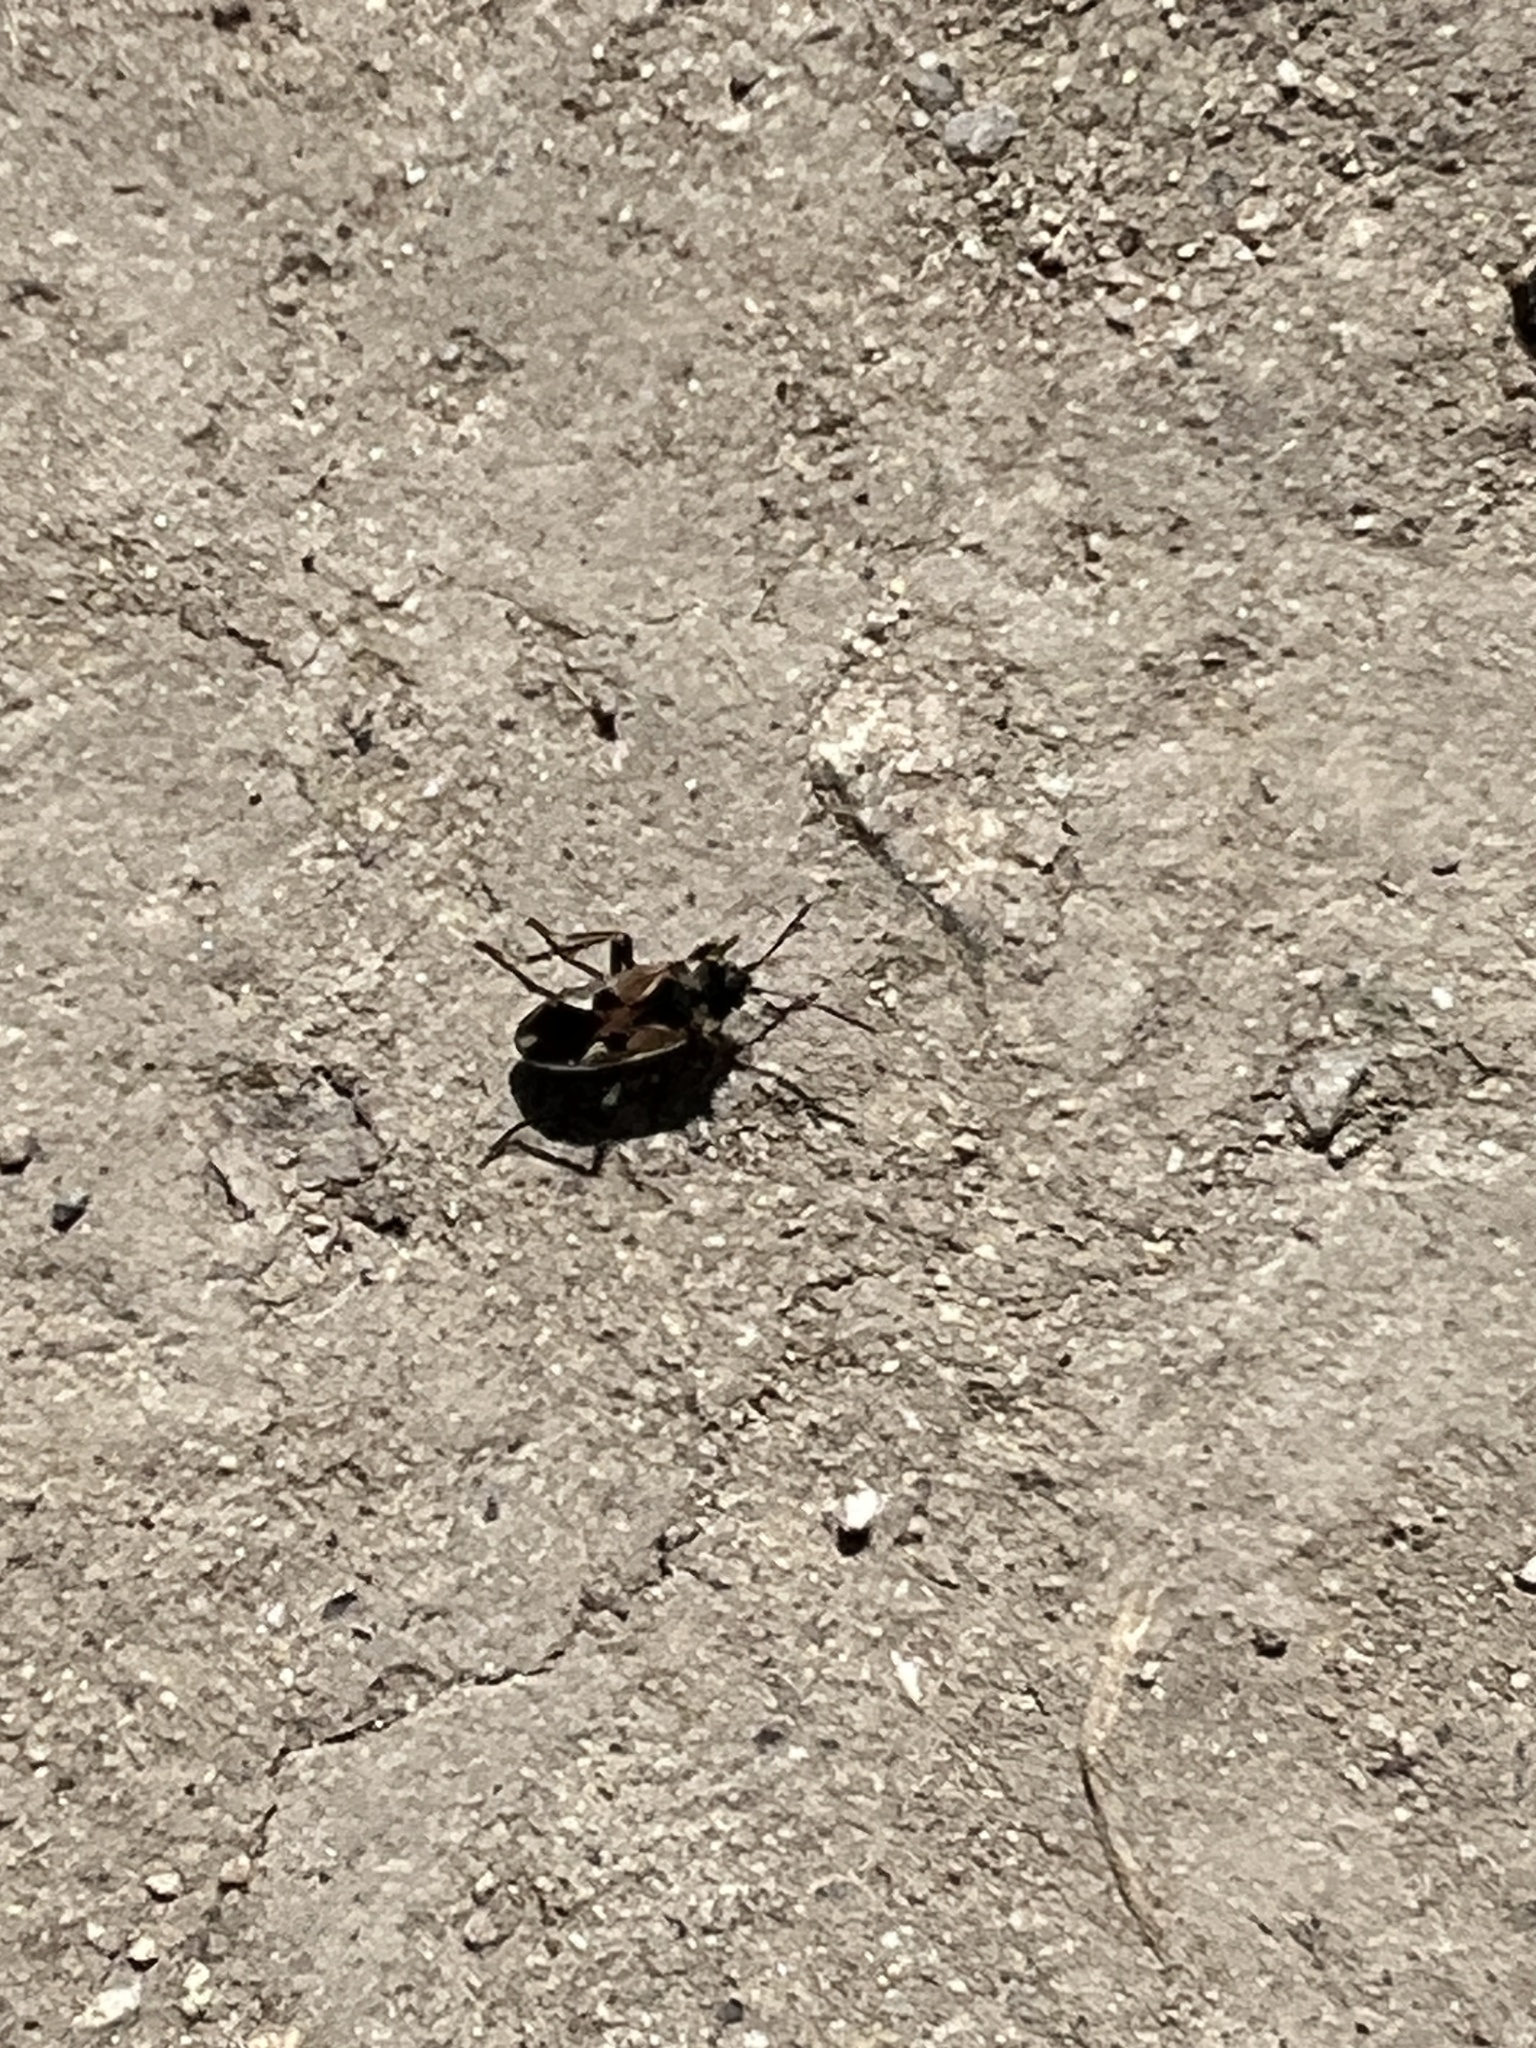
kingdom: Animalia
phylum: Arthropoda
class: Insecta
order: Hemiptera
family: Rhyparochromidae
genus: Rhyparochromus
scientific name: Rhyparochromus vulgaris
